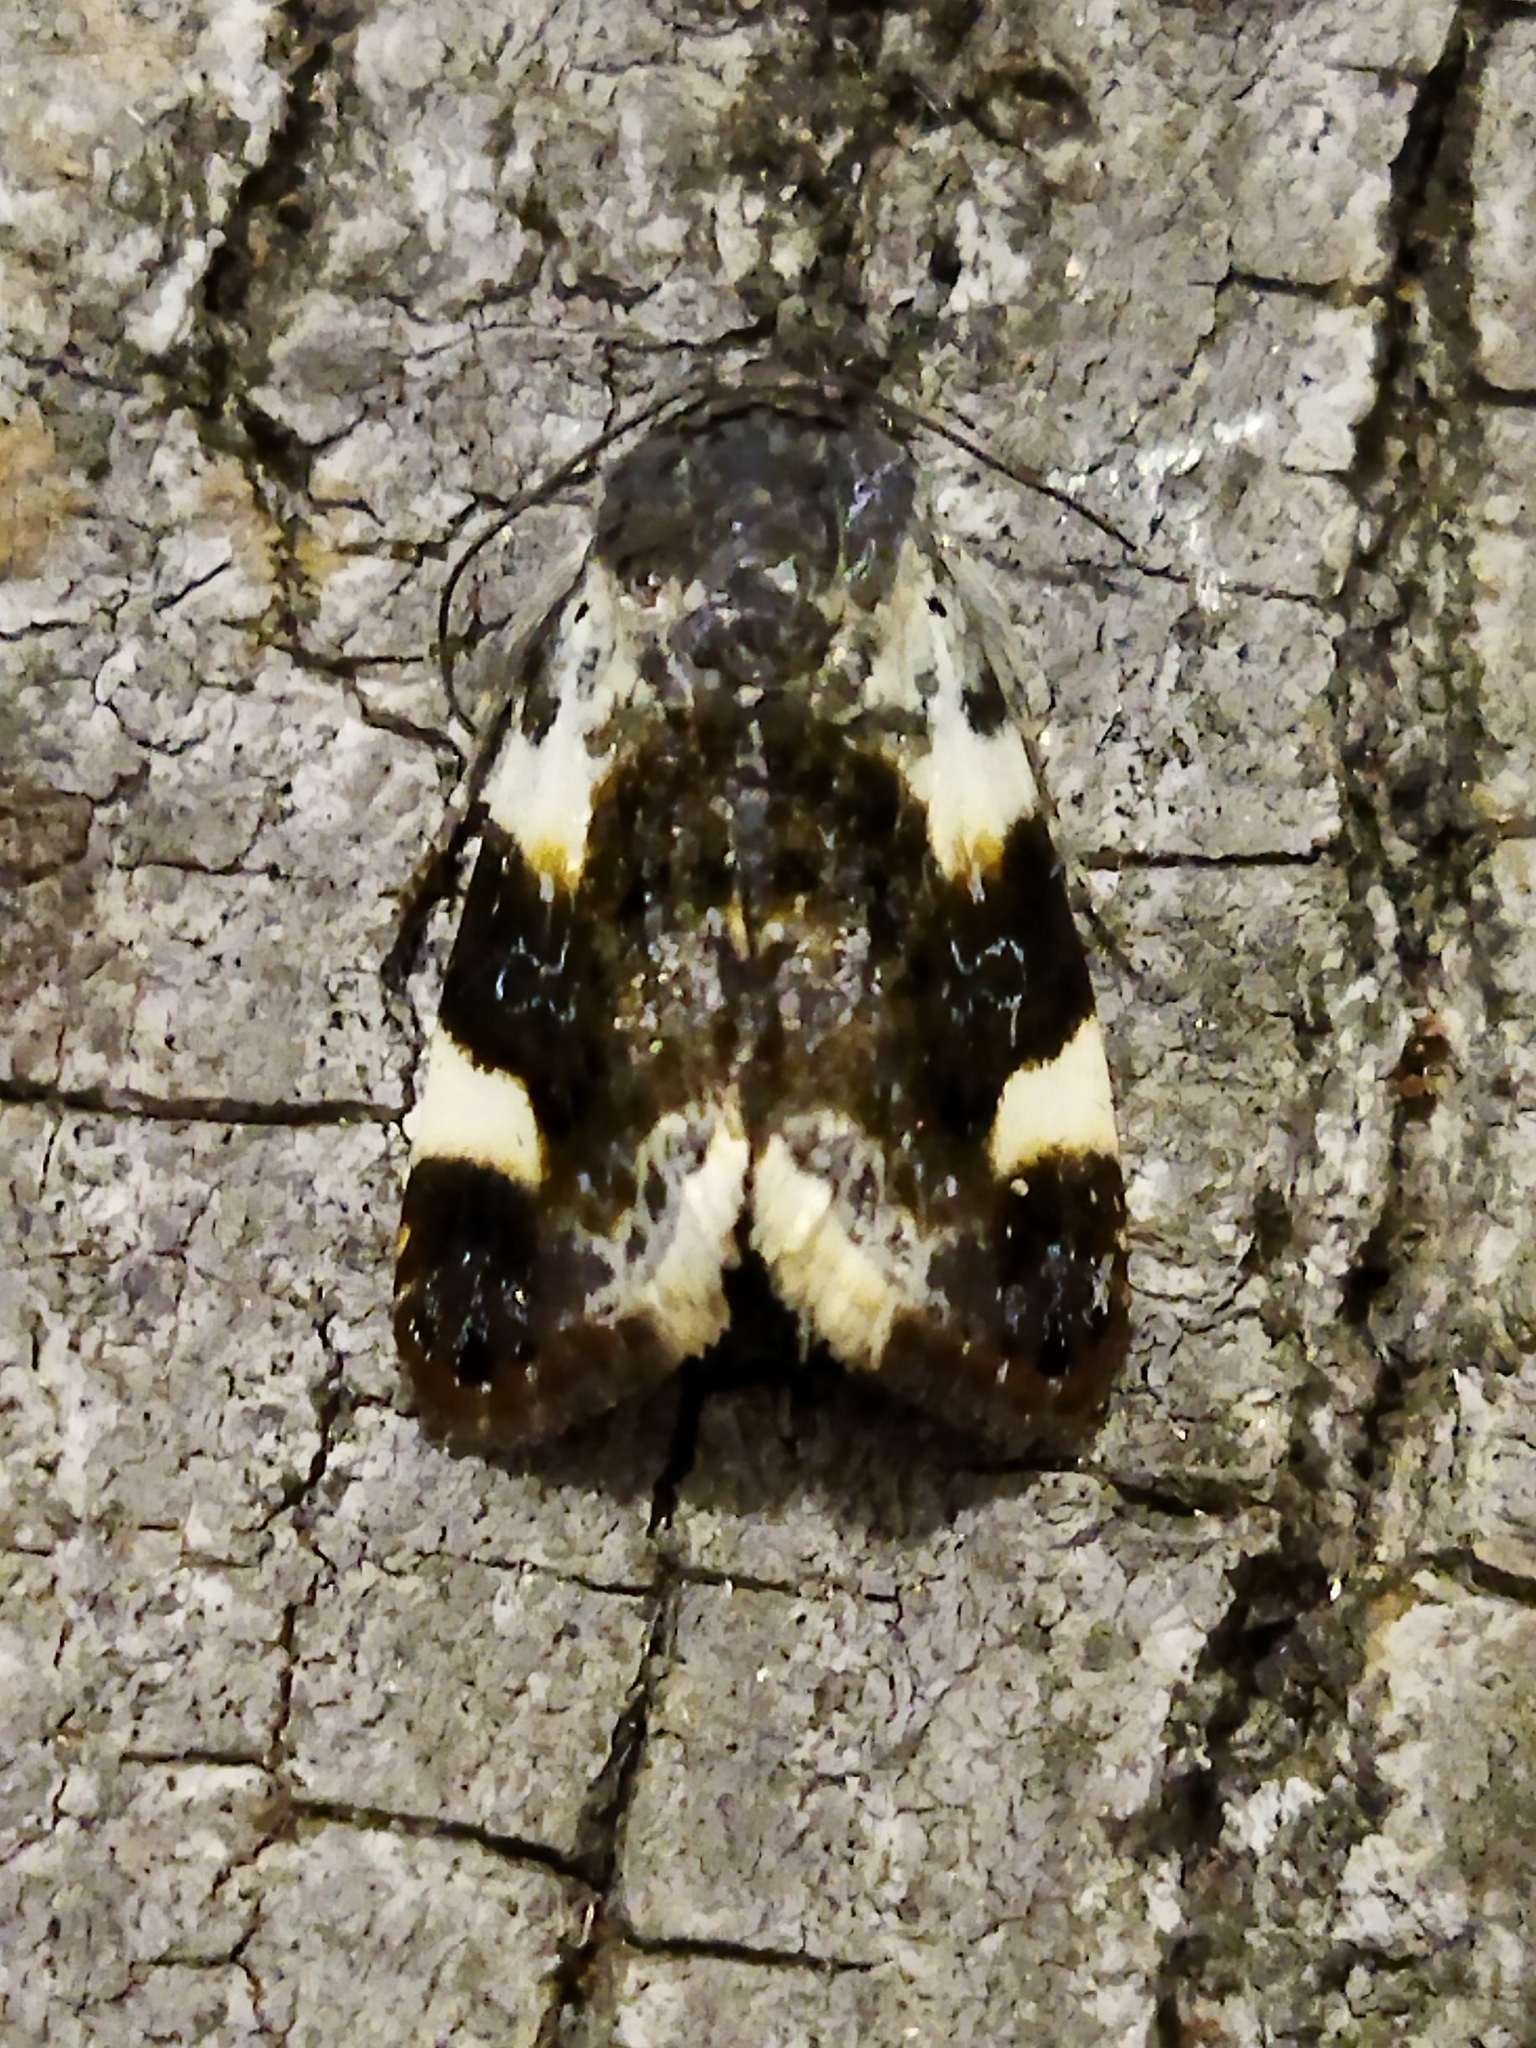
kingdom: Animalia
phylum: Arthropoda
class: Insecta
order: Lepidoptera
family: Noctuidae
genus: Acontia
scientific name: Acontia lucida
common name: Pale shoulder
